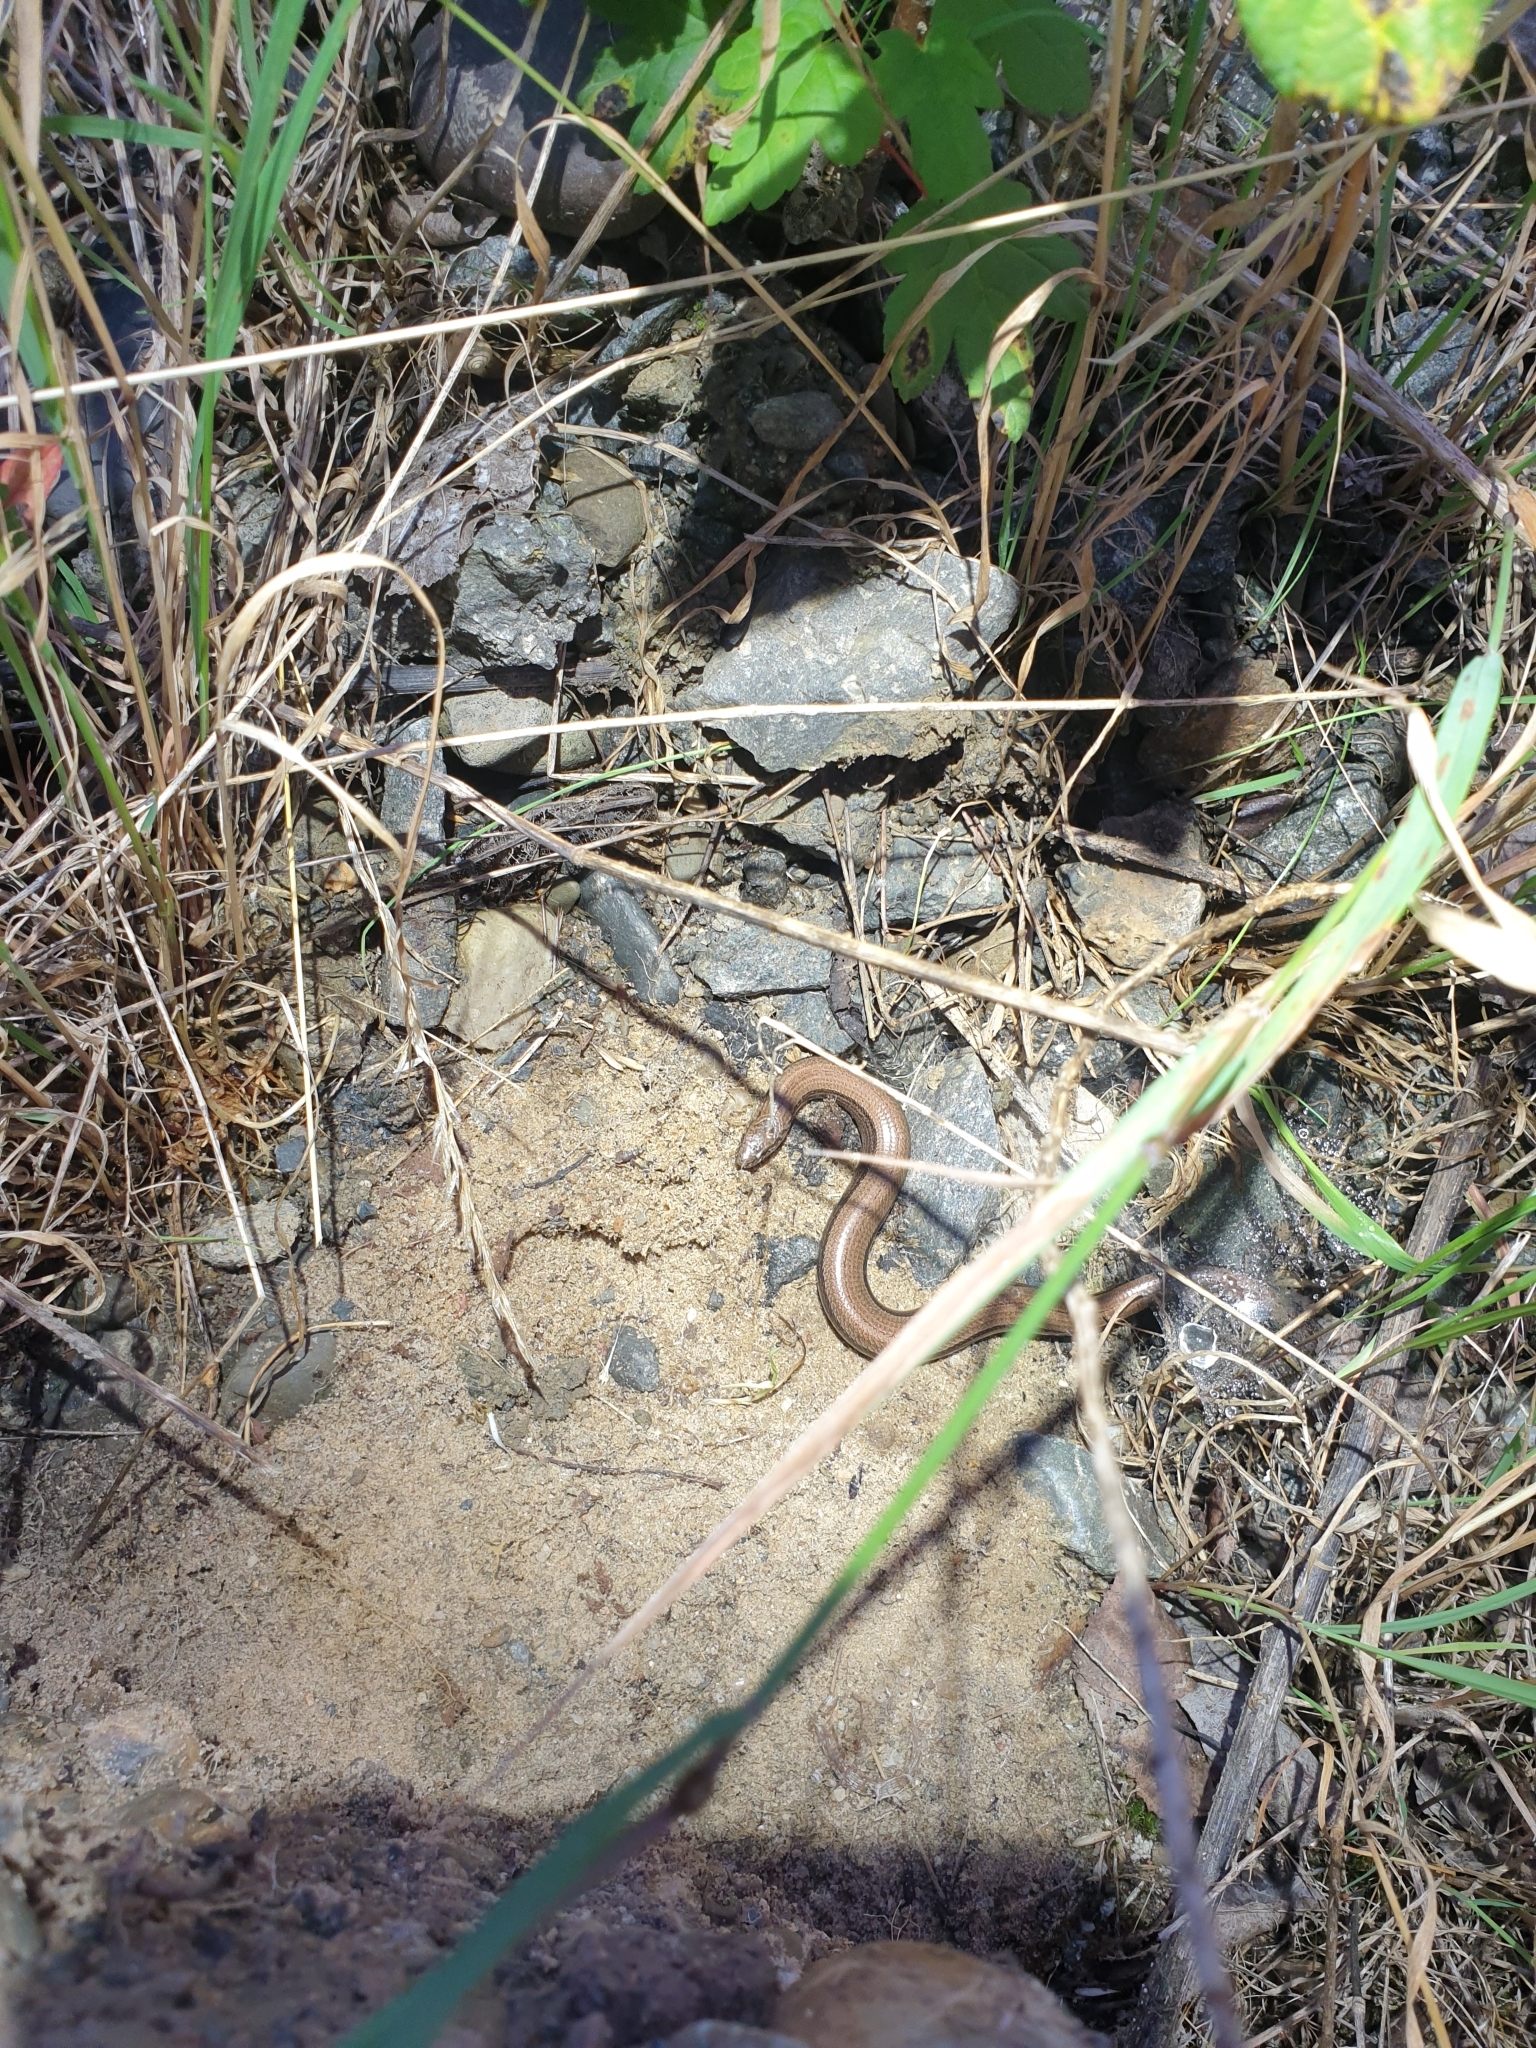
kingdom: Animalia
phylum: Chordata
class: Squamata
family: Anguidae
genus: Anguis
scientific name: Anguis fragilis
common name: Slow worm
